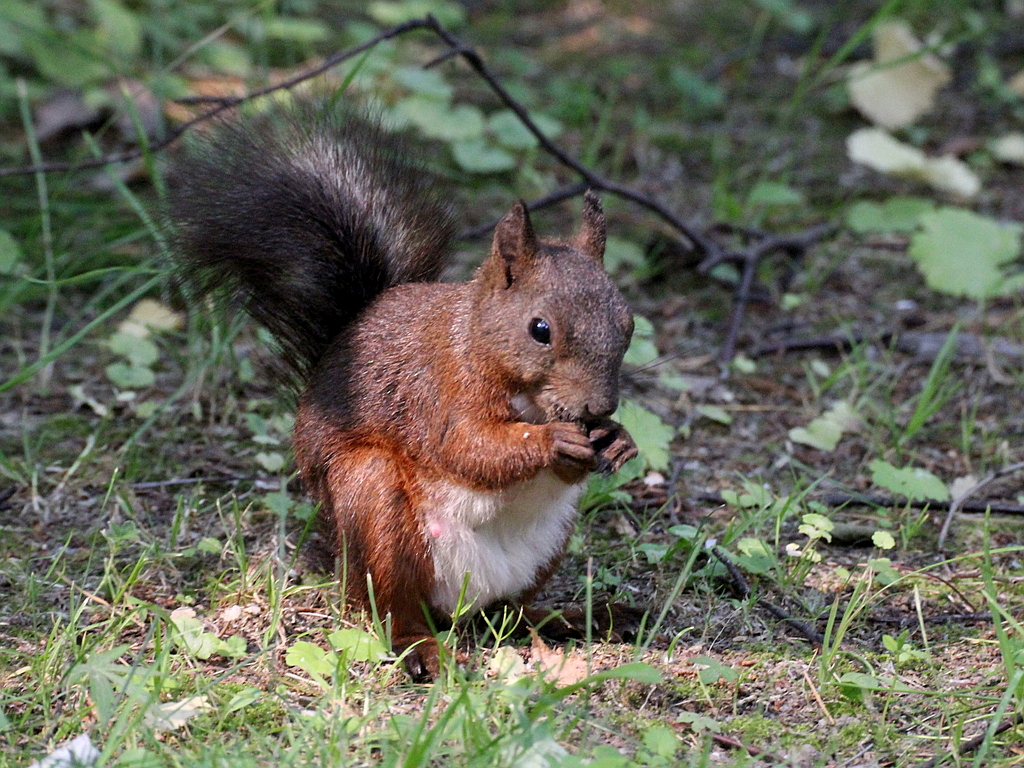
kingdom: Animalia
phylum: Chordata
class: Mammalia
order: Rodentia
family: Sciuridae
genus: Sciurus
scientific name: Sciurus vulgaris
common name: Eurasian red squirrel
